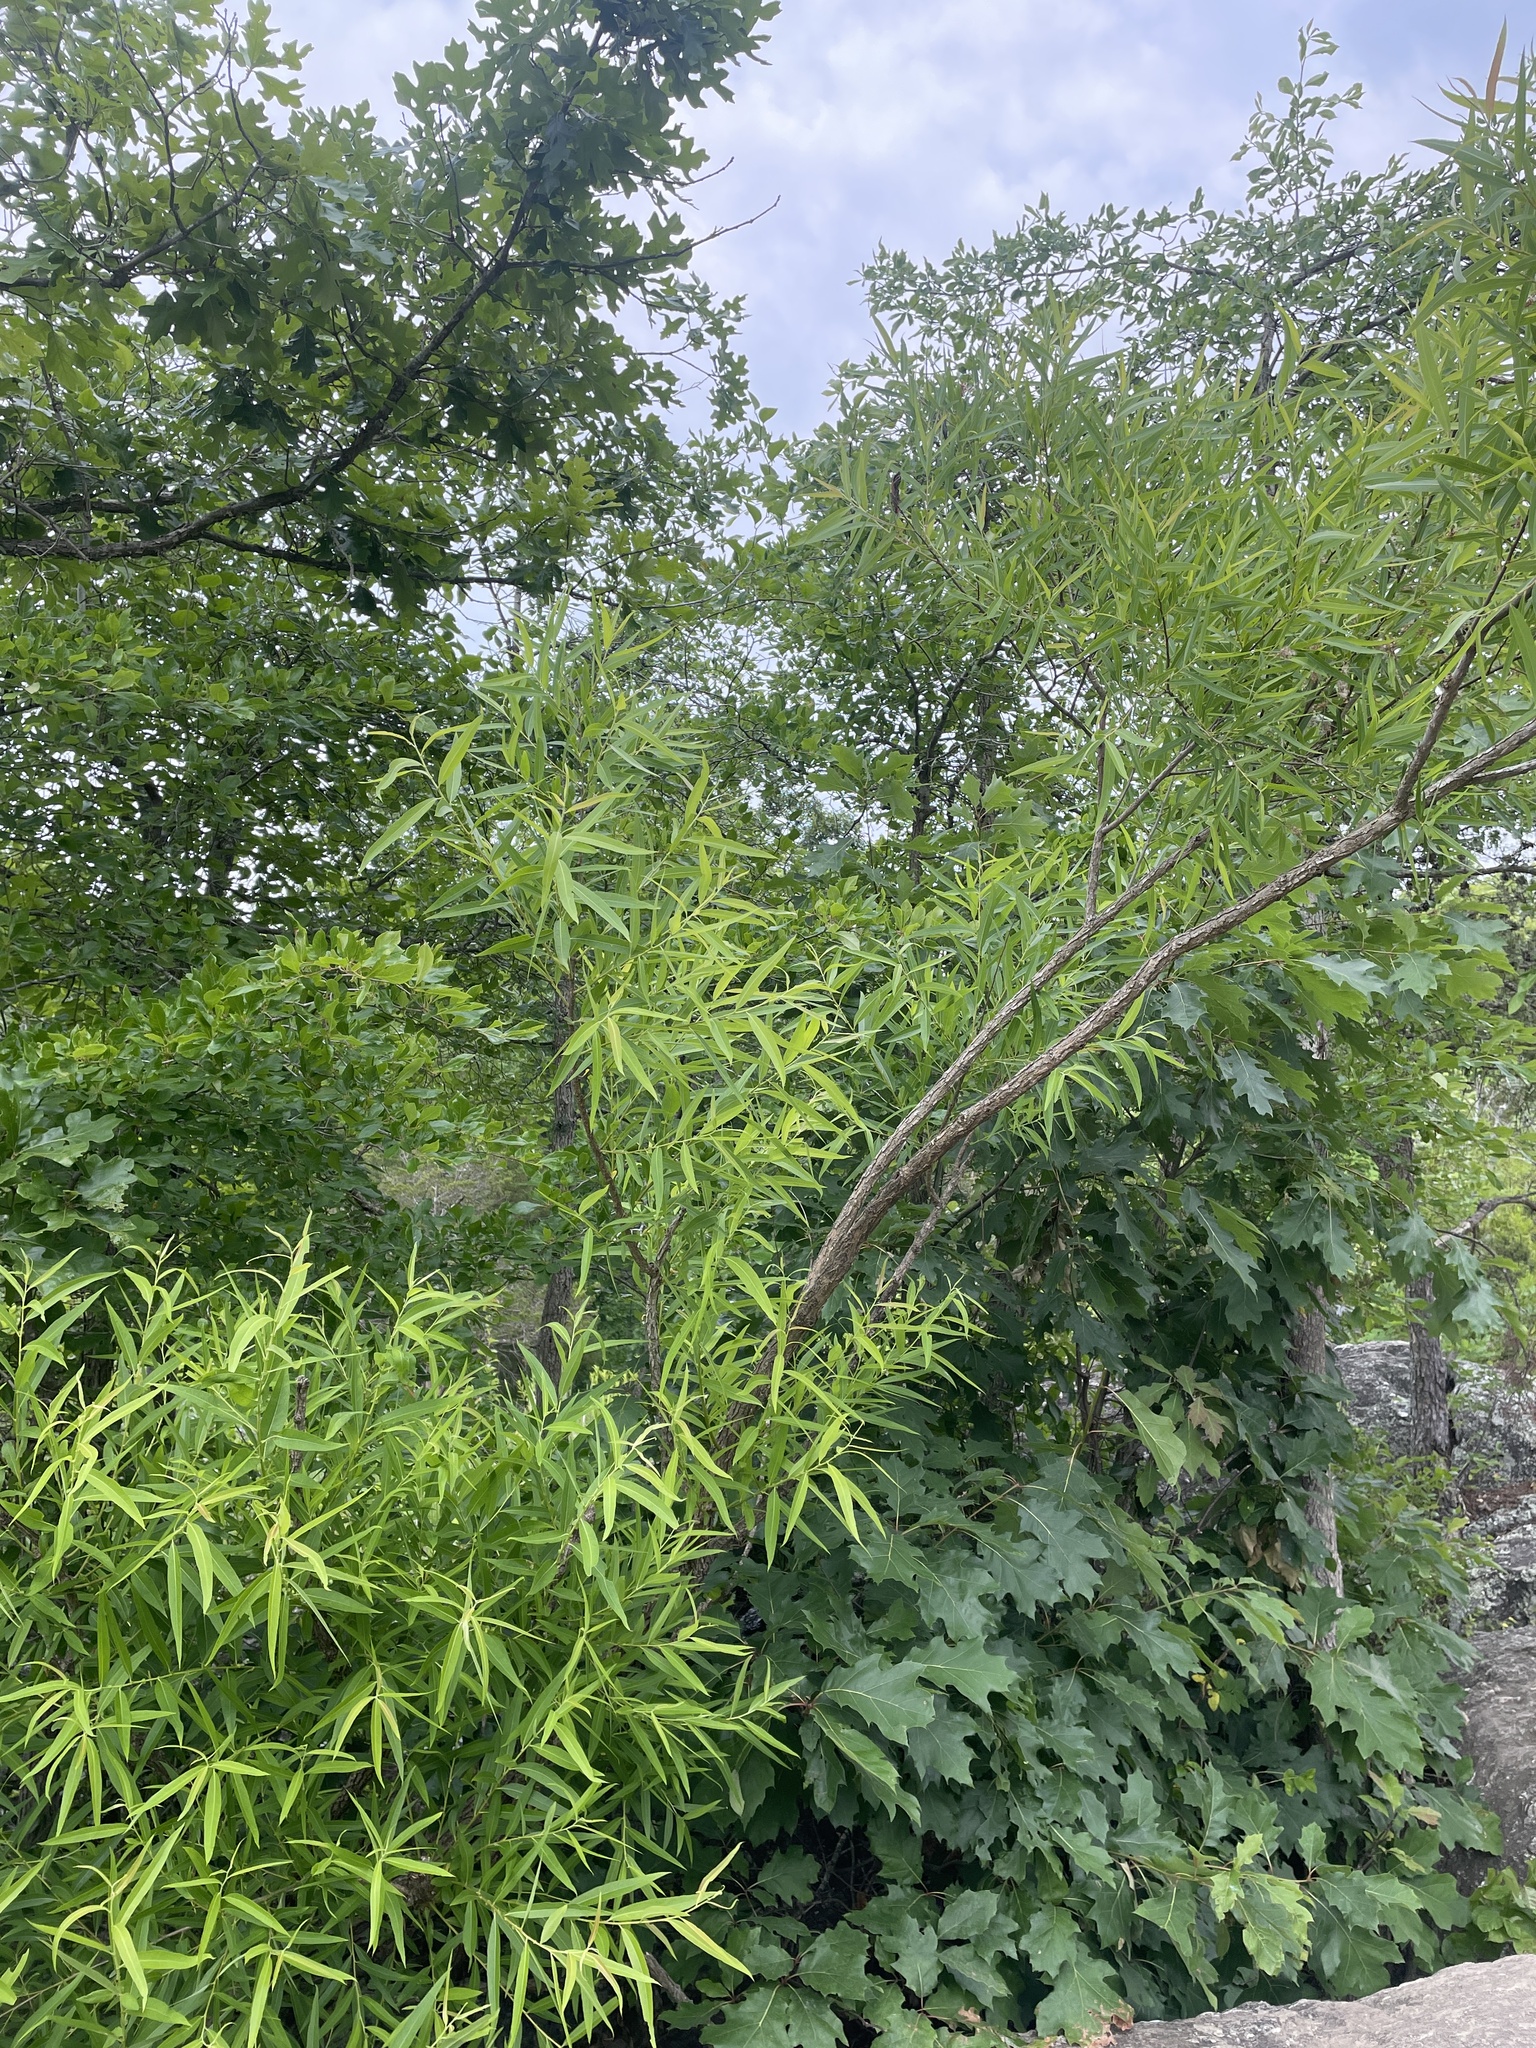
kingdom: Plantae
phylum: Tracheophyta
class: Magnoliopsida
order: Malpighiales
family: Salicaceae
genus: Salix
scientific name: Salix nigra
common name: Black willow
